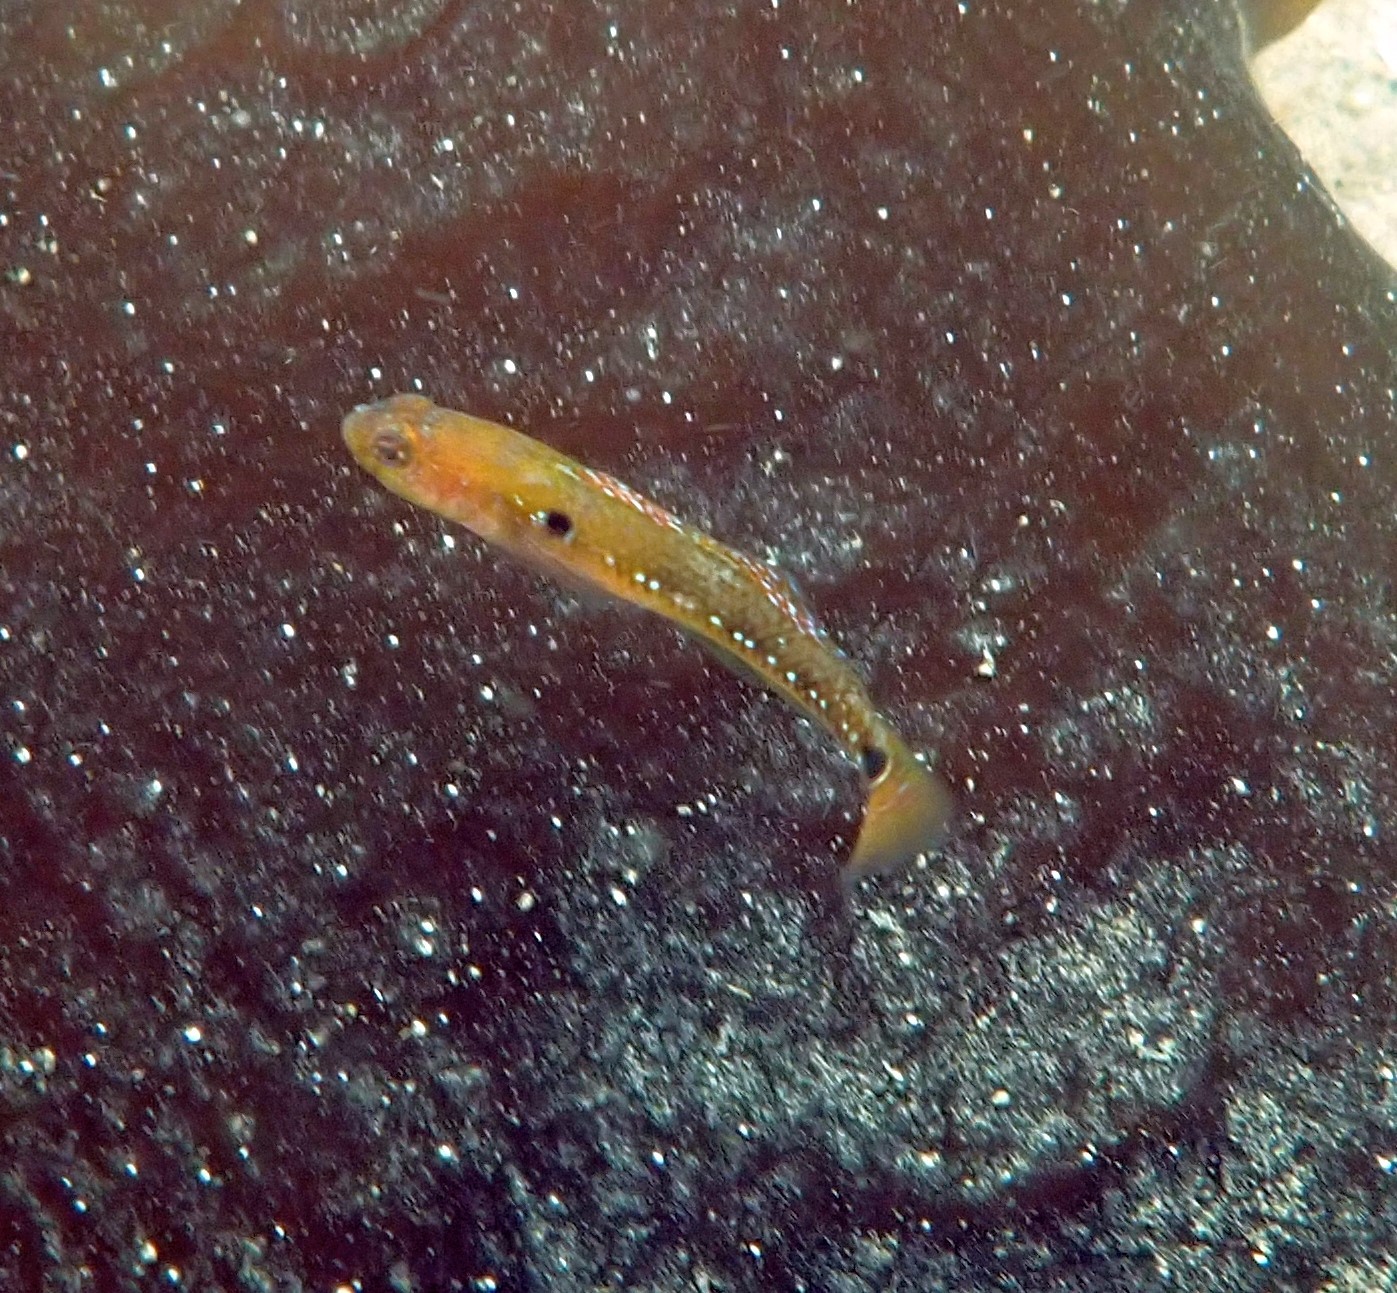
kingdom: Animalia
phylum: Chordata
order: Perciformes
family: Gobiidae
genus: Gobiusculus
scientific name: Gobiusculus flavescens
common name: Two-spotted goby
